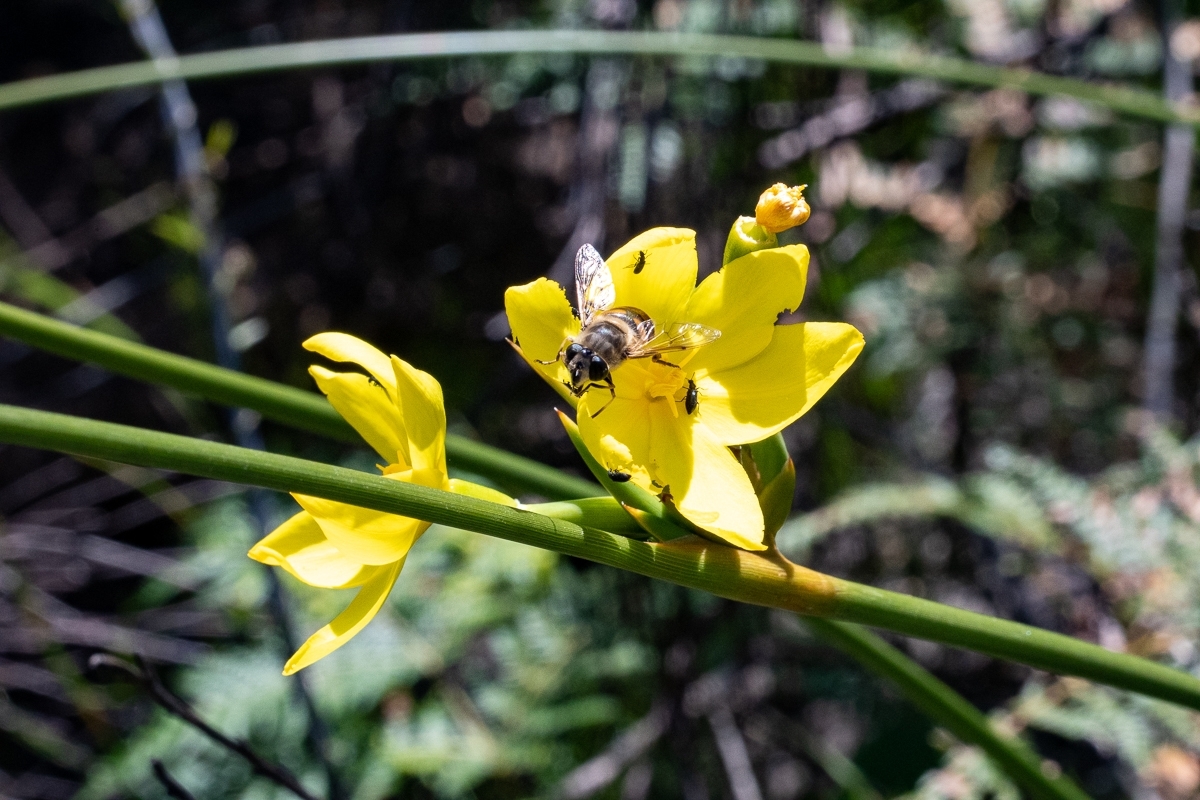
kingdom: Plantae
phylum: Tracheophyta
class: Liliopsida
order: Asparagales
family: Iridaceae
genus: Bobartia
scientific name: Bobartia indica
